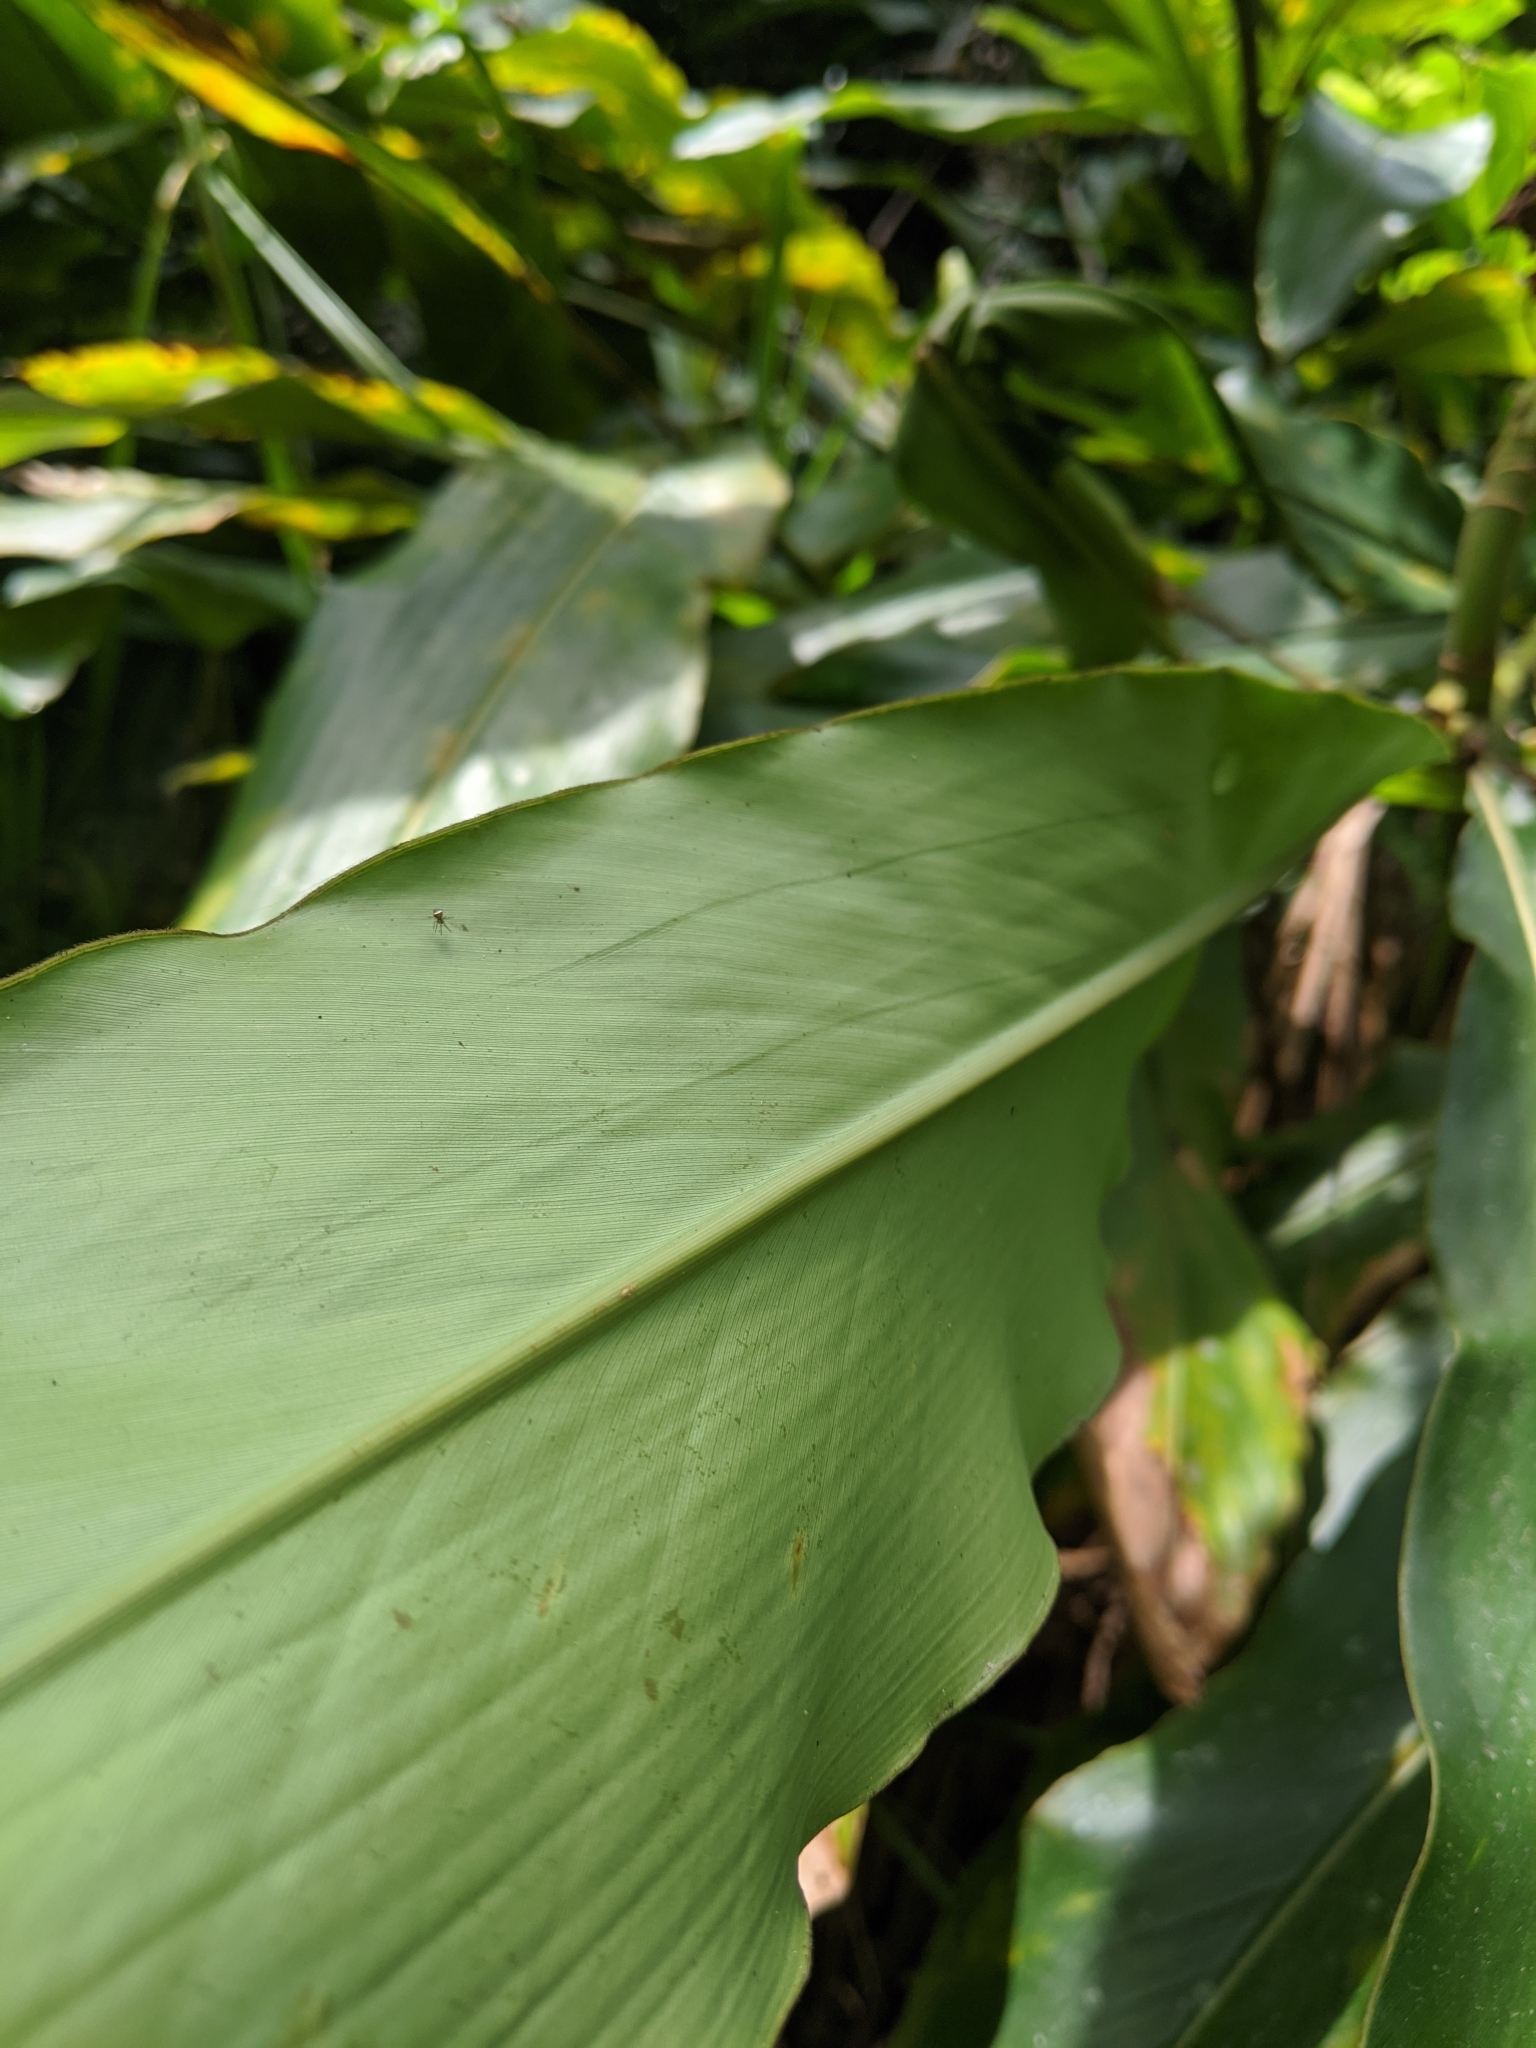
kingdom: Plantae
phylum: Tracheophyta
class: Liliopsida
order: Zingiberales
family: Zingiberaceae
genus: Alpinia
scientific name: Alpinia uraiensis
